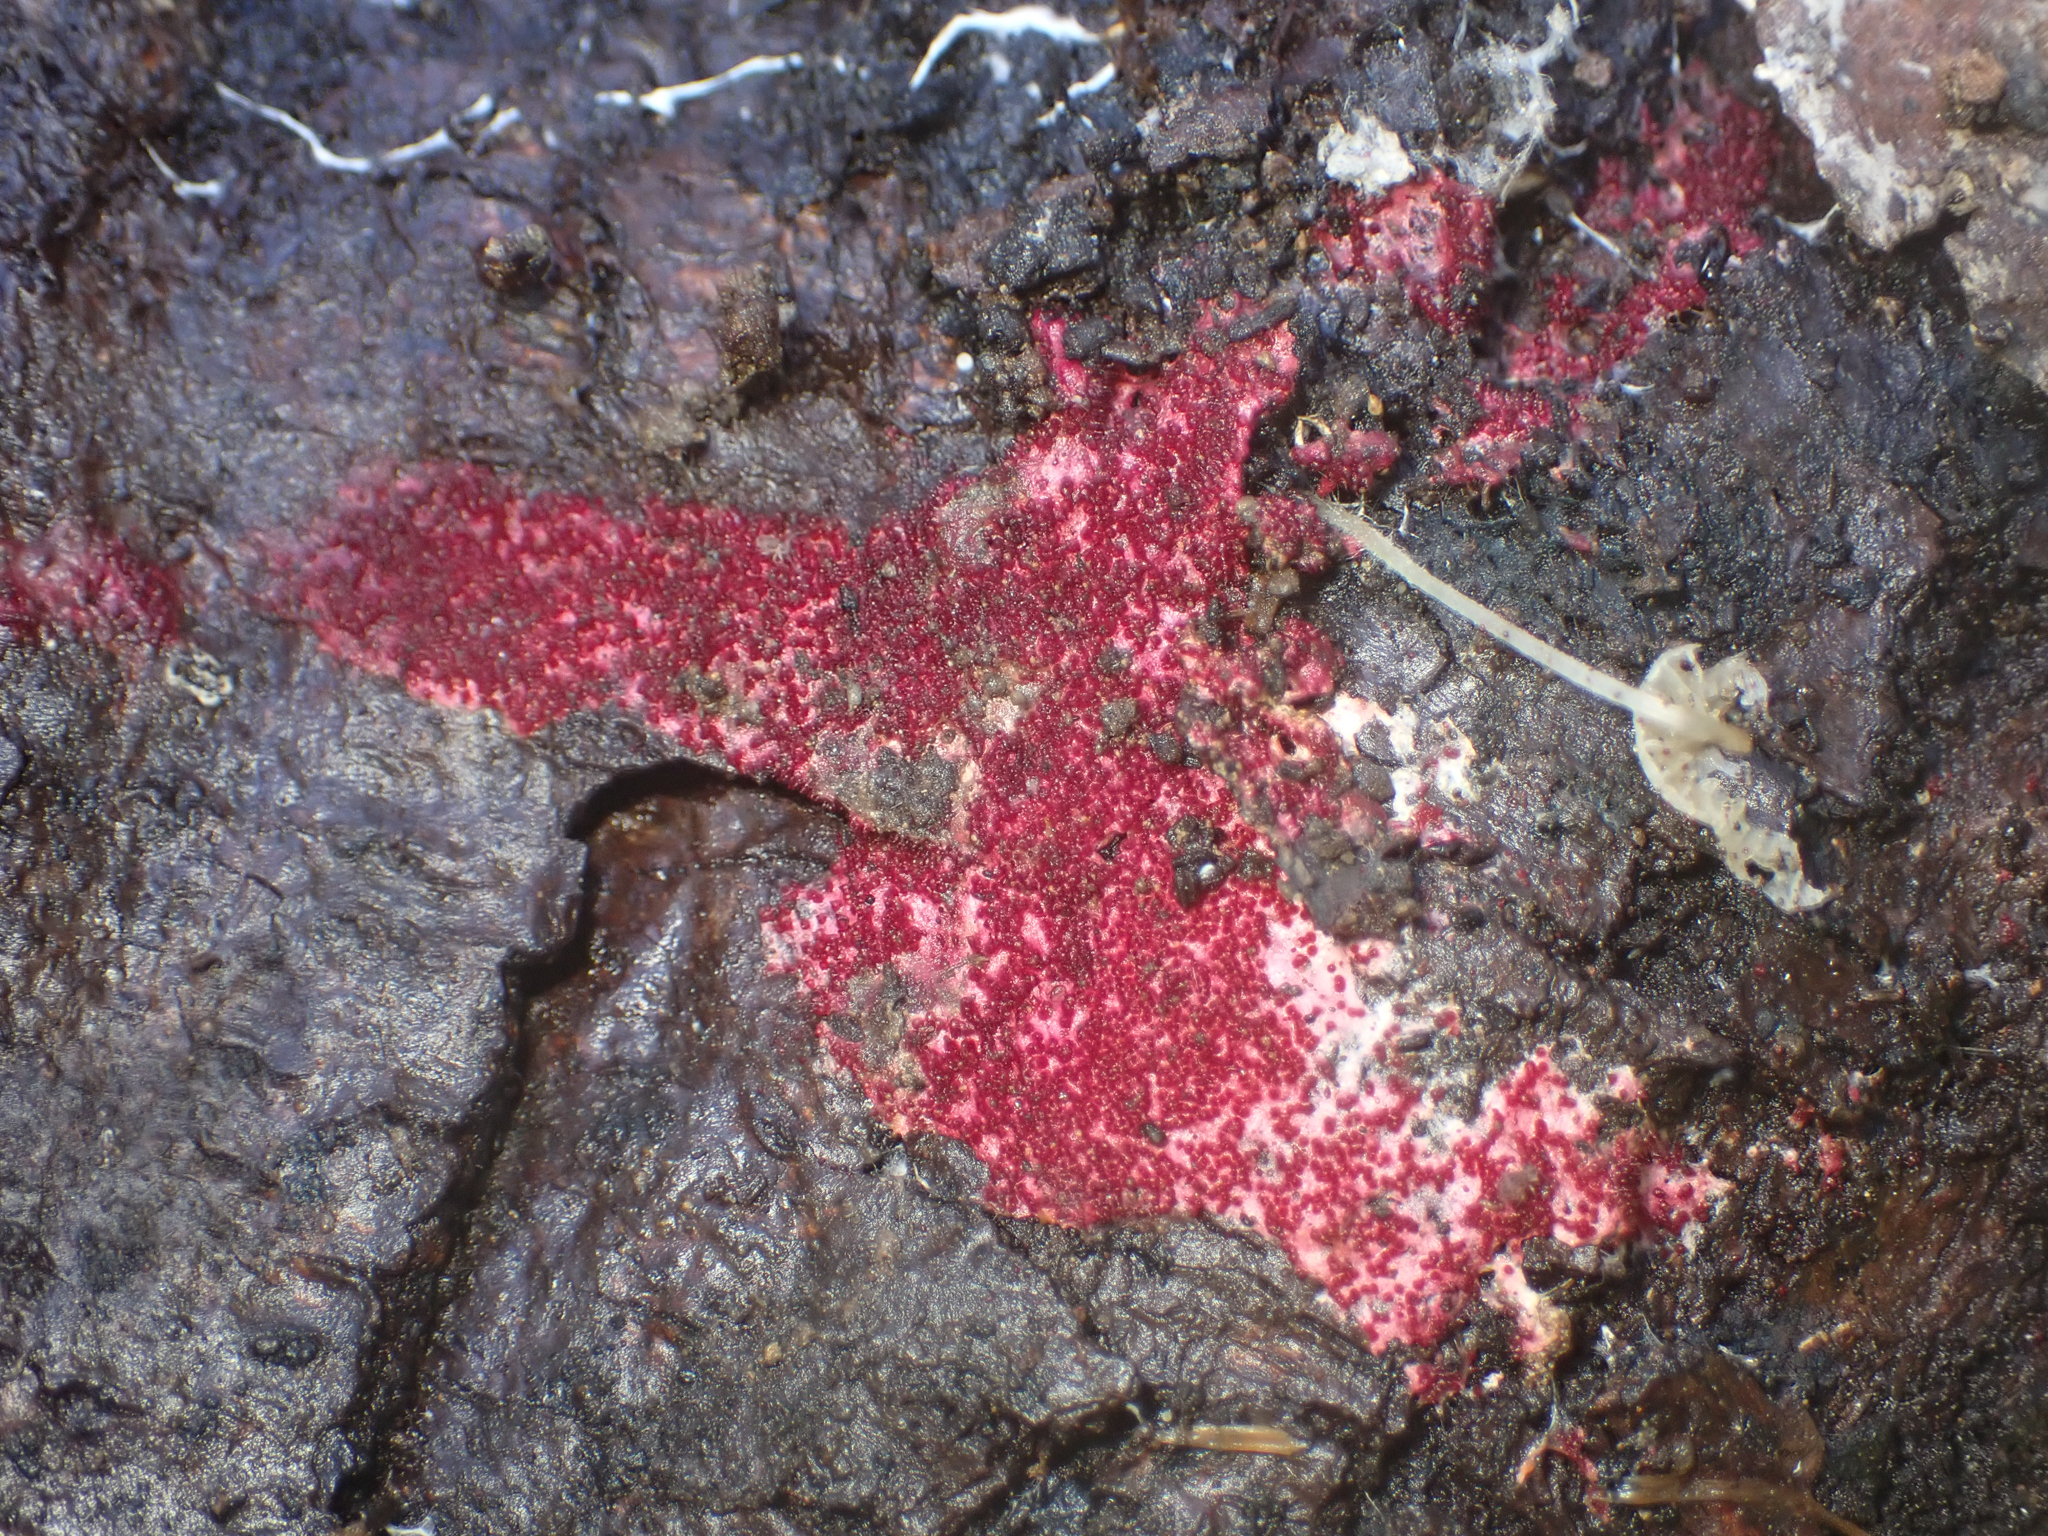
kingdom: Fungi
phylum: Ascomycota
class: Sordariomycetes
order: Hypocreales
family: Hypocreaceae
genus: Hypomyces
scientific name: Hypomyces rosellus
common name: Pink polypore mould
